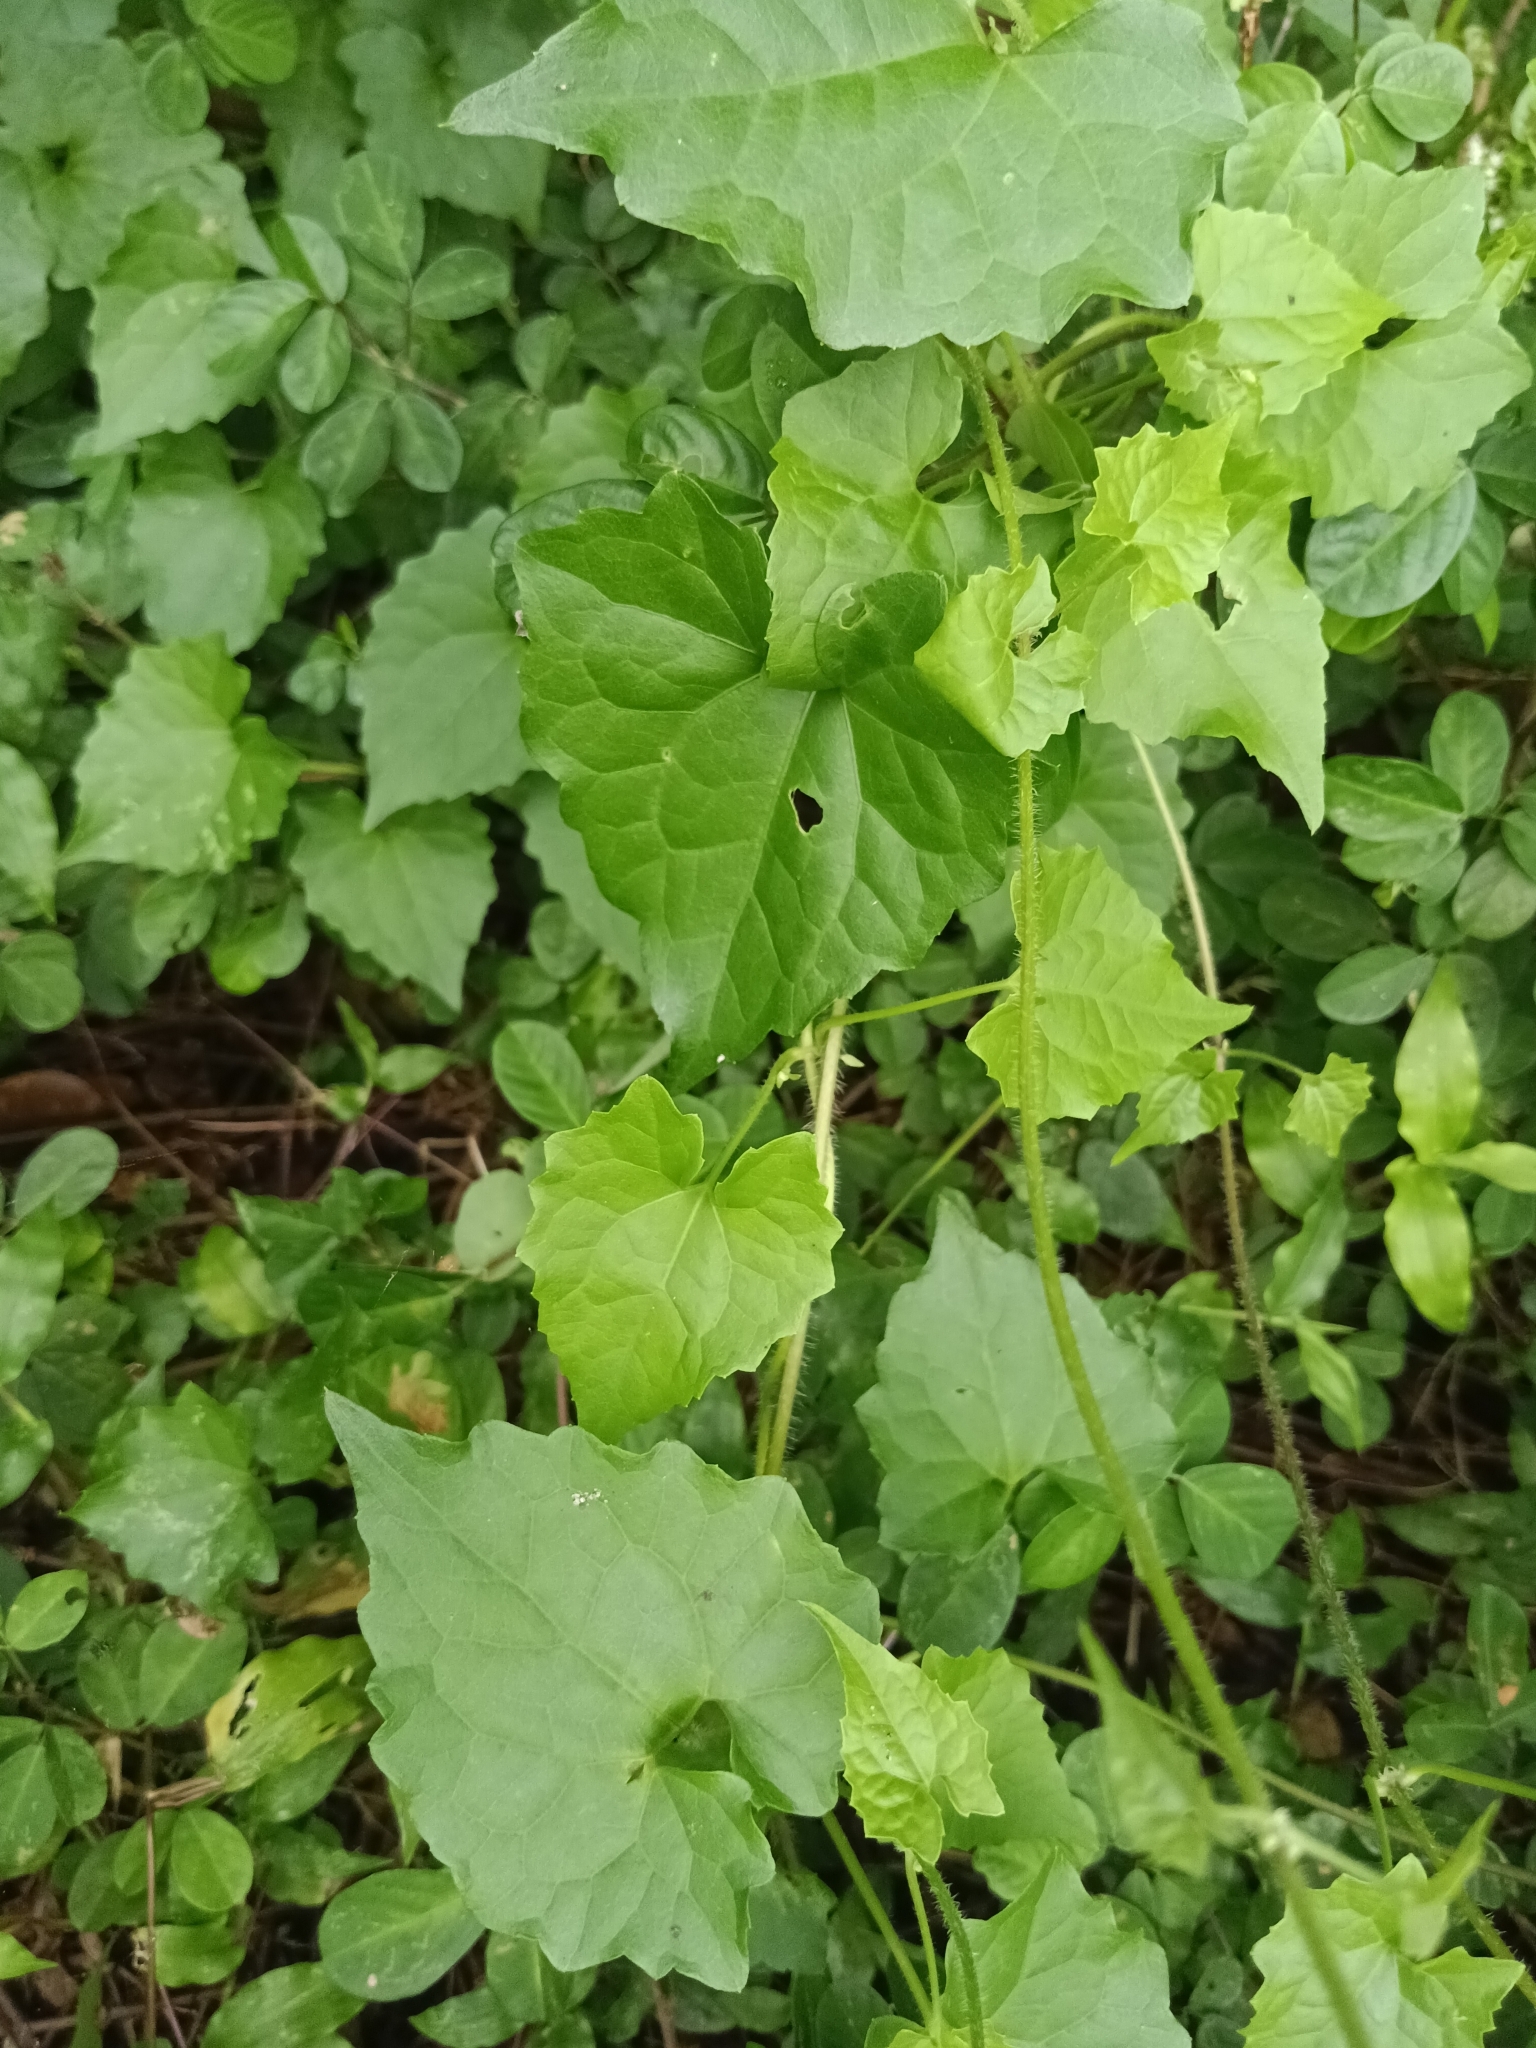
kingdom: Plantae
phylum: Tracheophyta
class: Magnoliopsida
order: Asterales
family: Asteraceae
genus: Mikania
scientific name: Mikania micrantha
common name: Mile-a-minute
